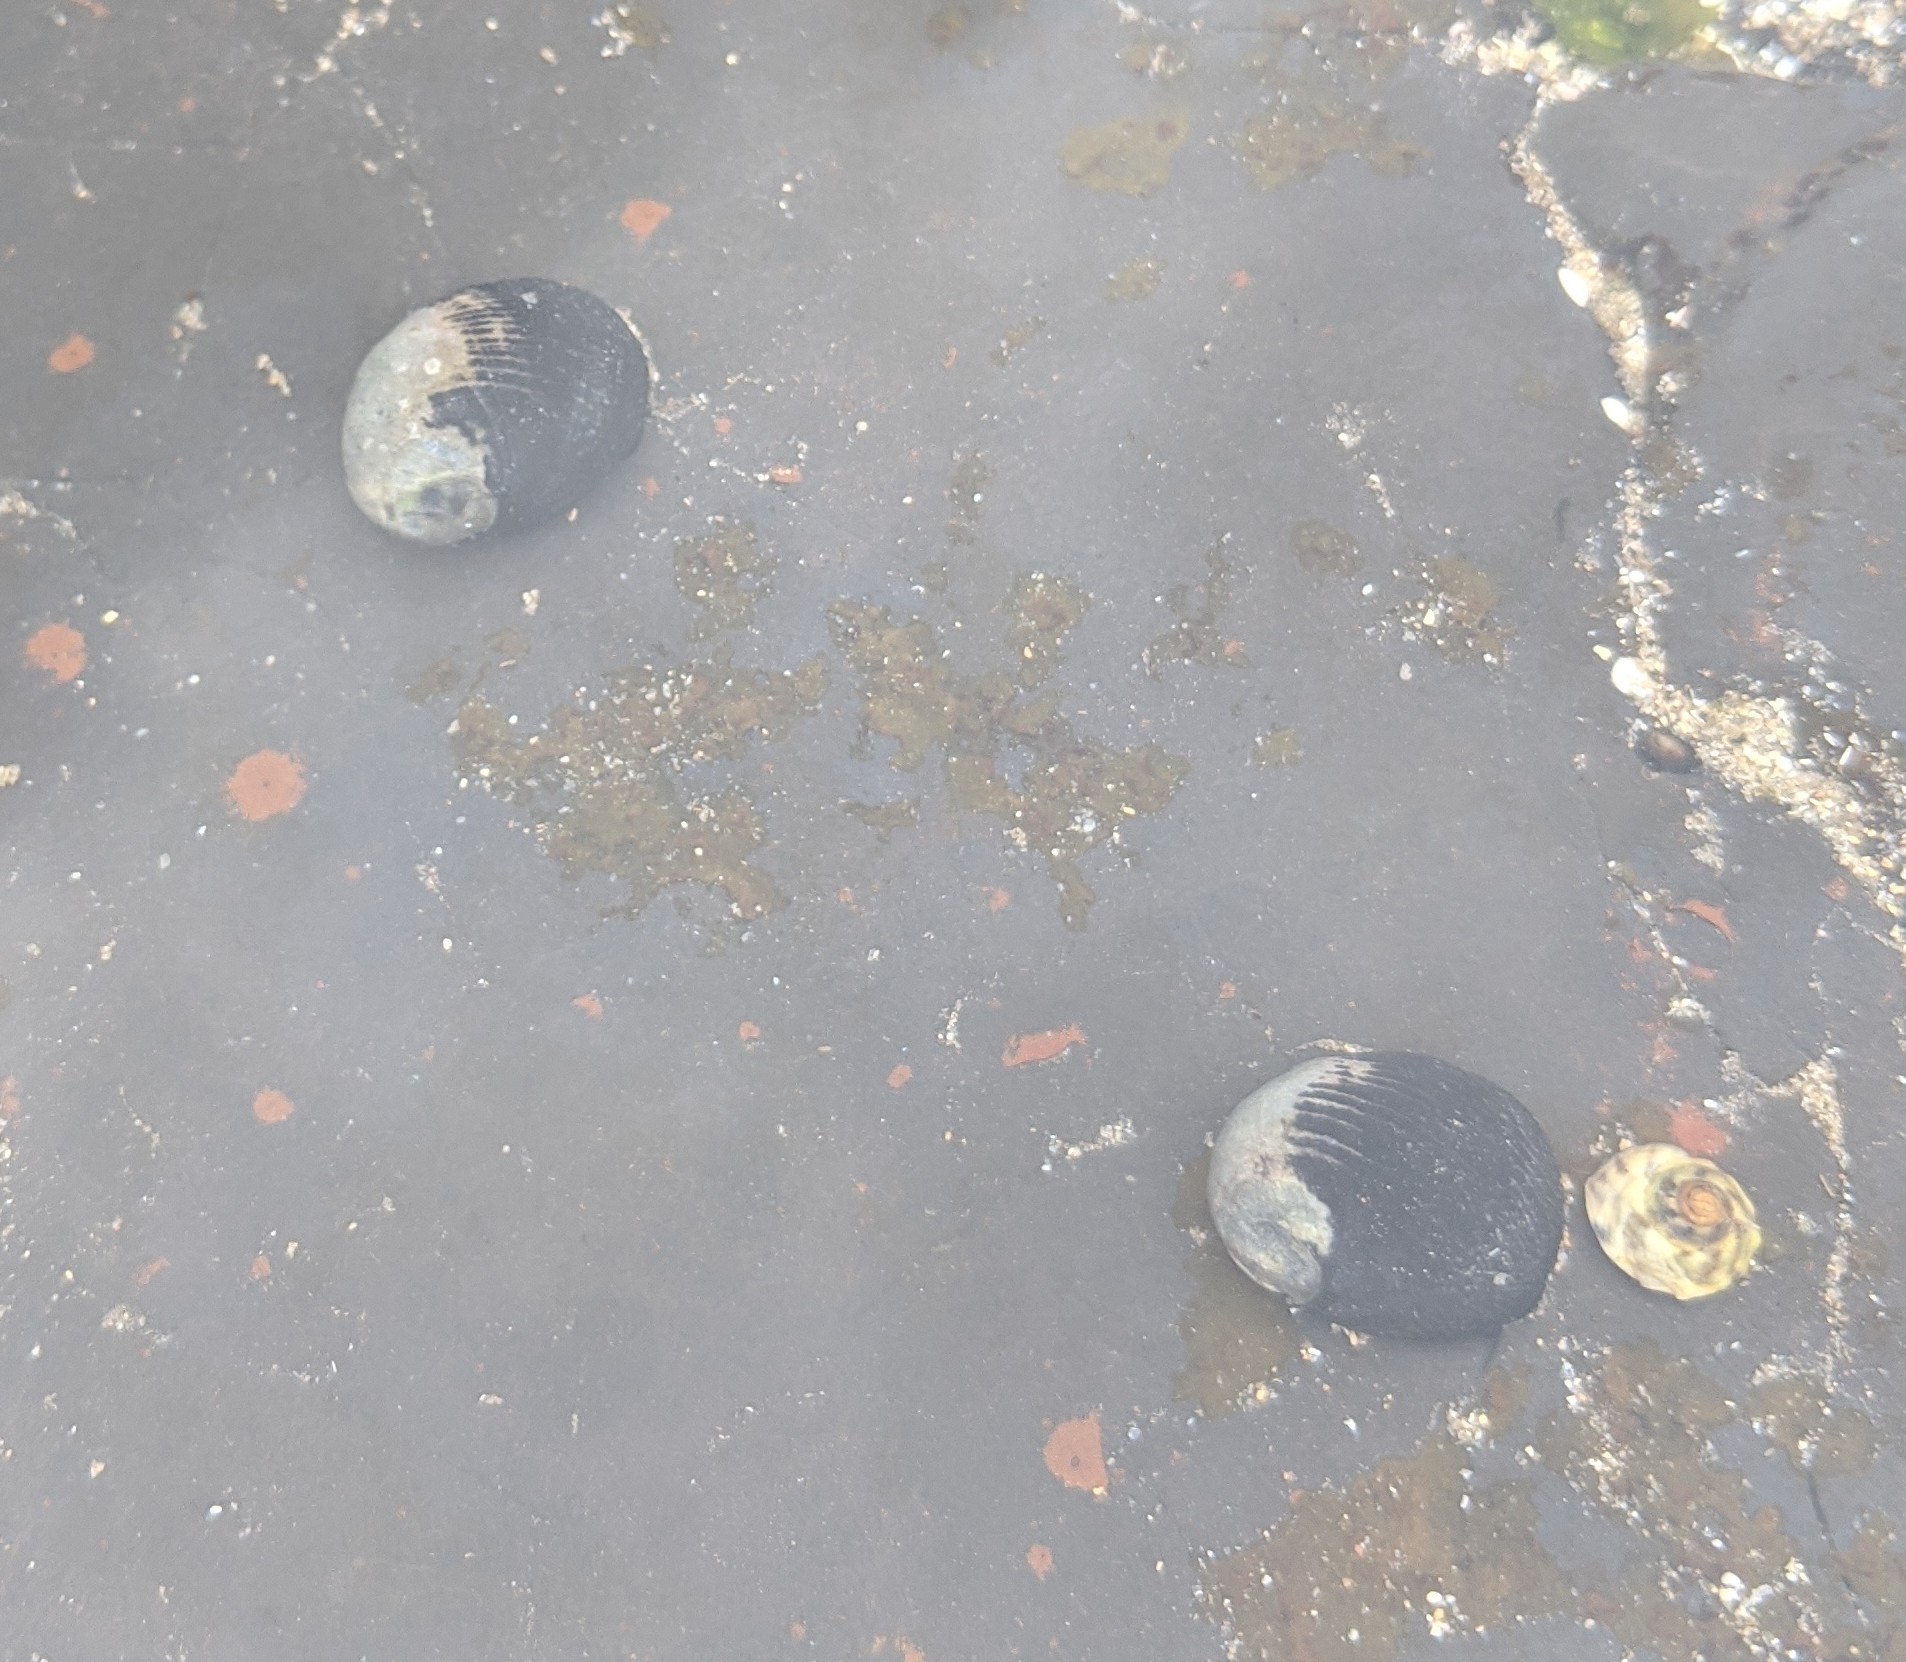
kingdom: Animalia
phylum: Mollusca
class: Gastropoda
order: Cycloneritida
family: Neritidae
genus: Nerita
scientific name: Nerita melanotragus
